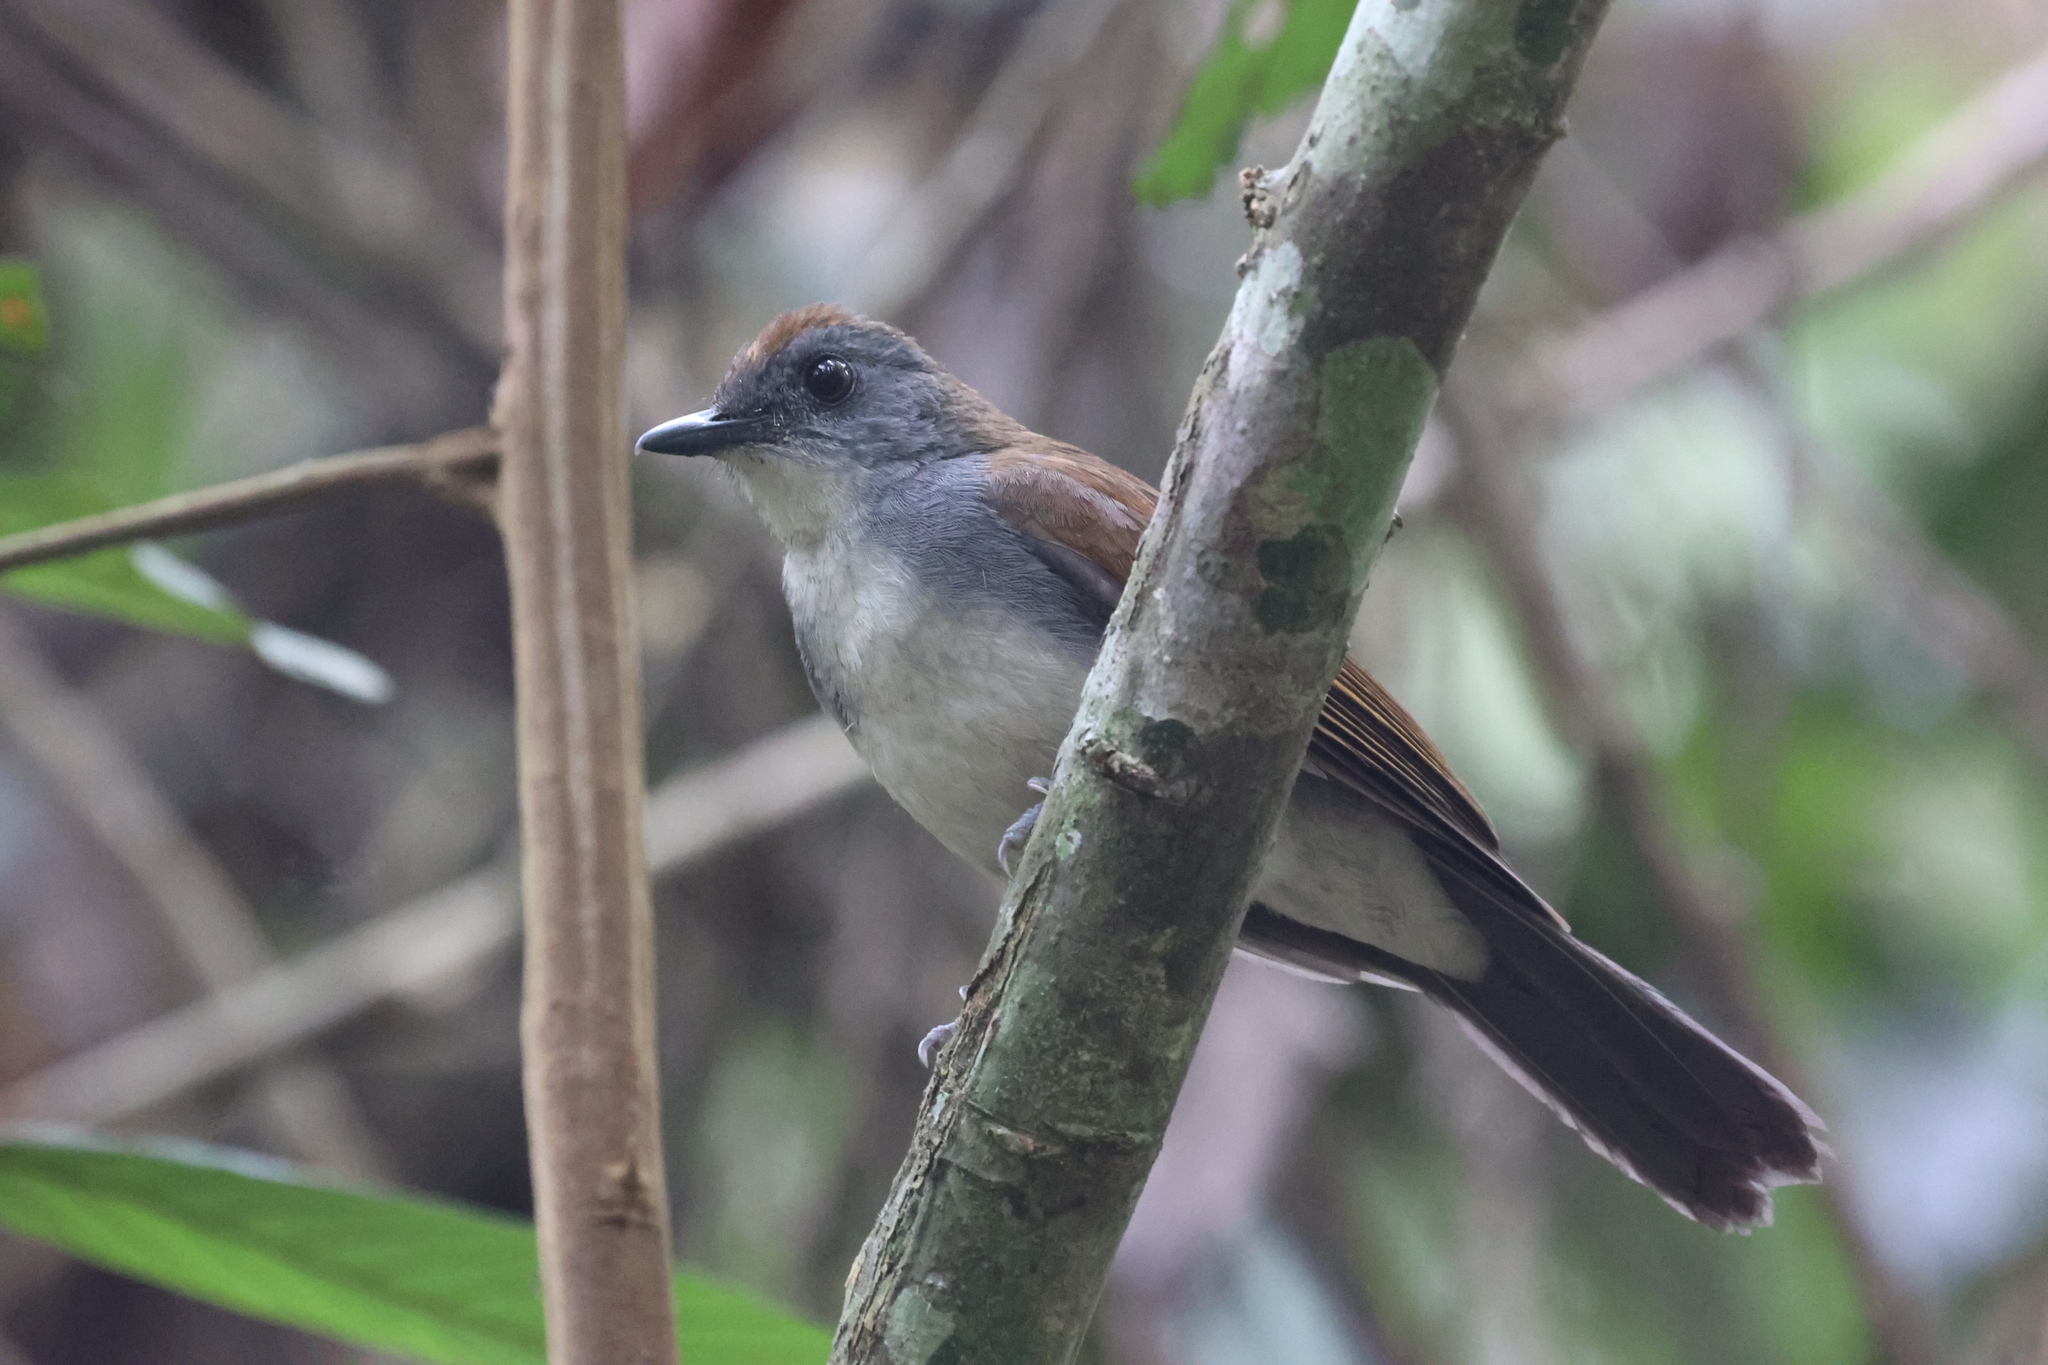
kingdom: Animalia
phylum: Chordata
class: Aves
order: Passeriformes
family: Turdidae
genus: Alethe
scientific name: Alethe castanea
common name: Fire-crested alethe
